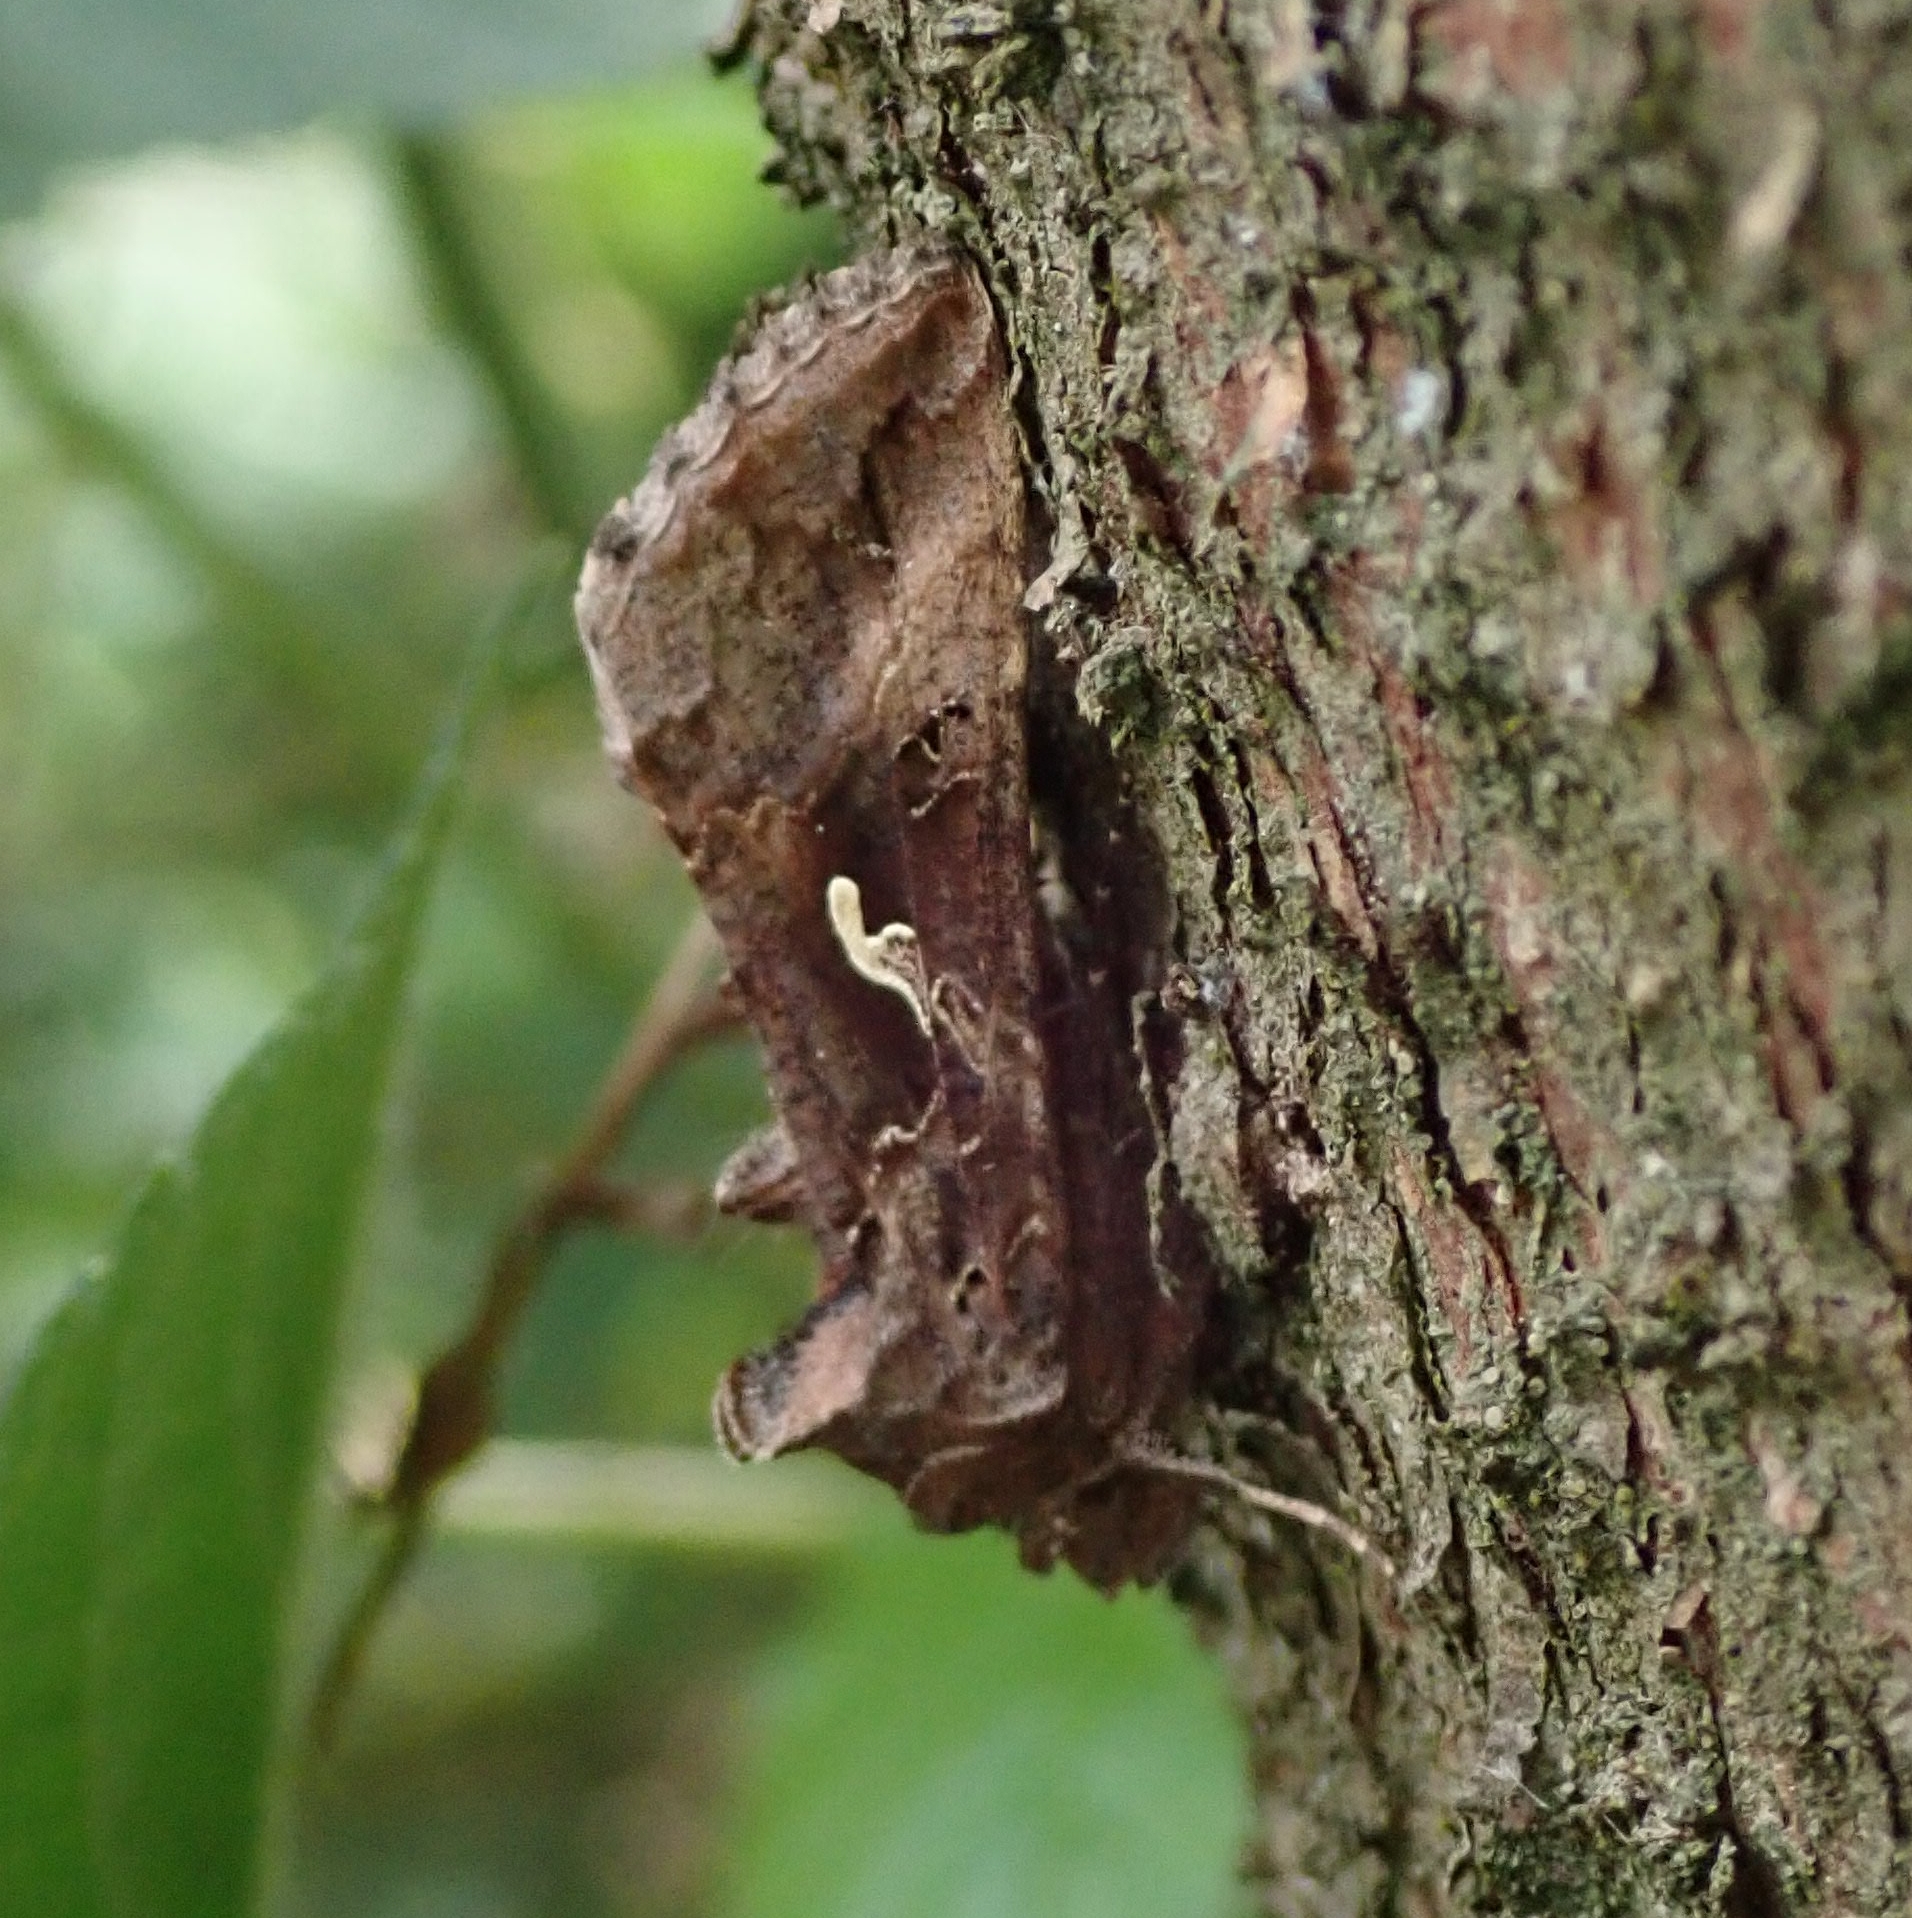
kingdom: Animalia
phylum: Arthropoda
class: Insecta
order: Lepidoptera
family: Noctuidae
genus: Autographa
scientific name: Autographa gamma
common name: Silver y
